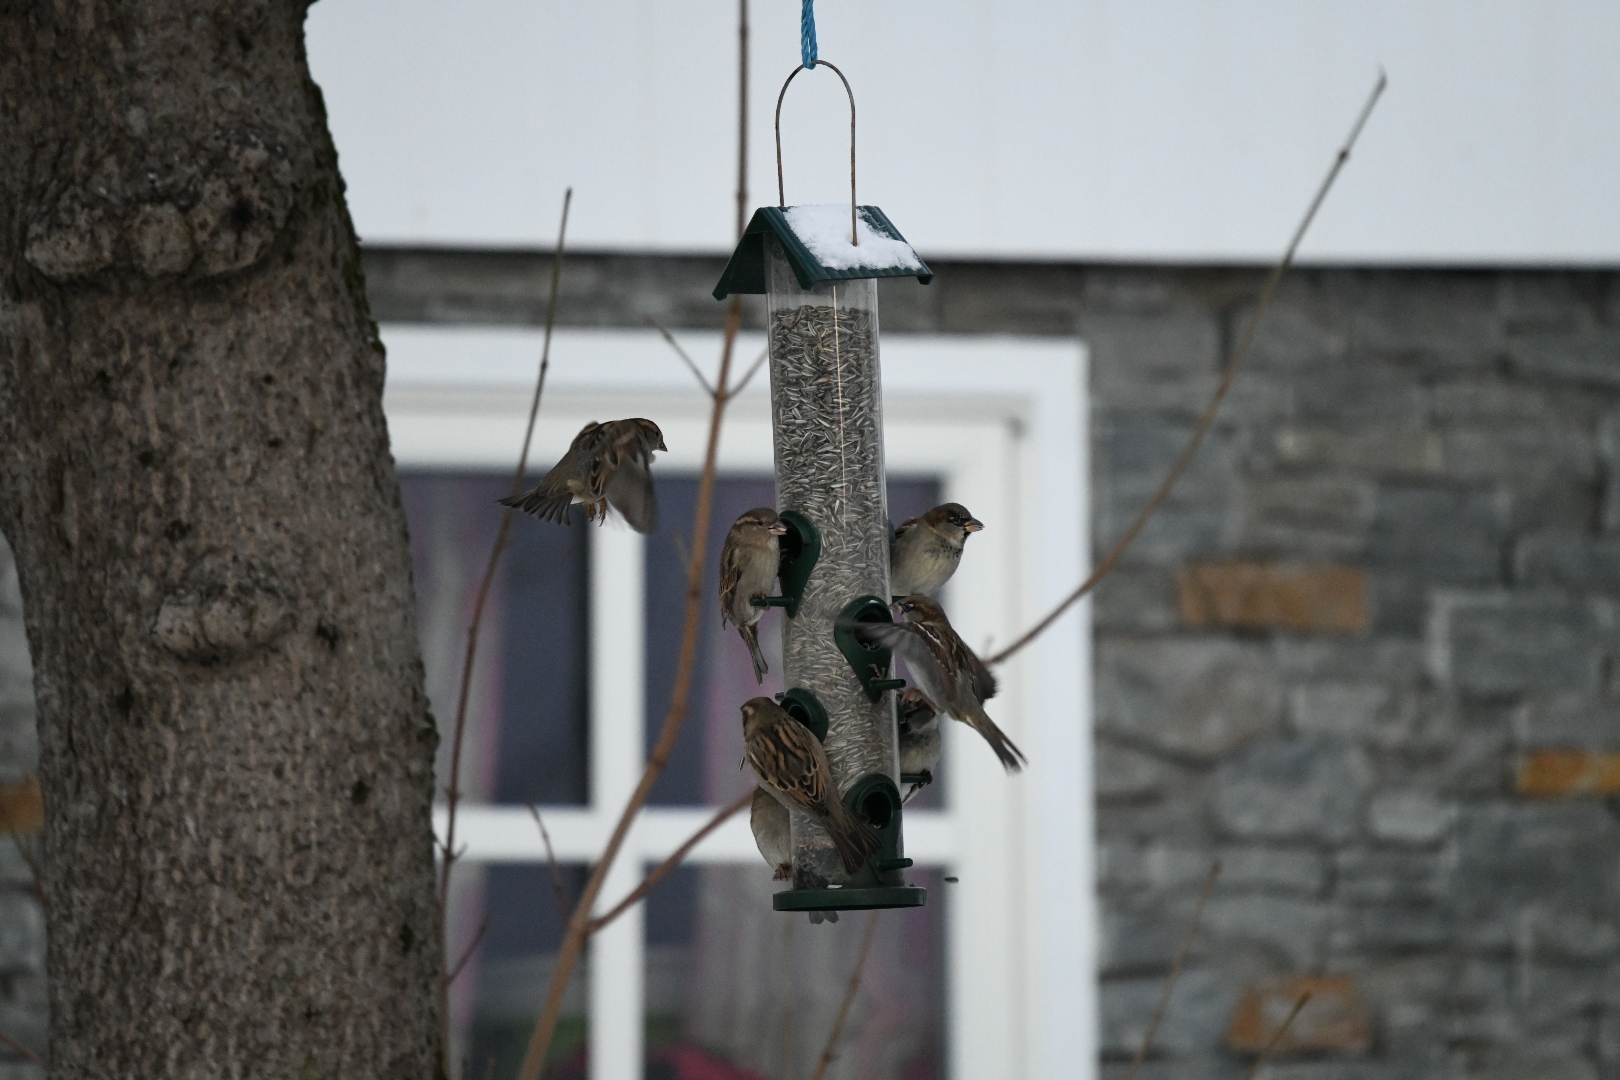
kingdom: Animalia
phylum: Chordata
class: Aves
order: Passeriformes
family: Passeridae
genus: Passer
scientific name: Passer domesticus
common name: House sparrow
